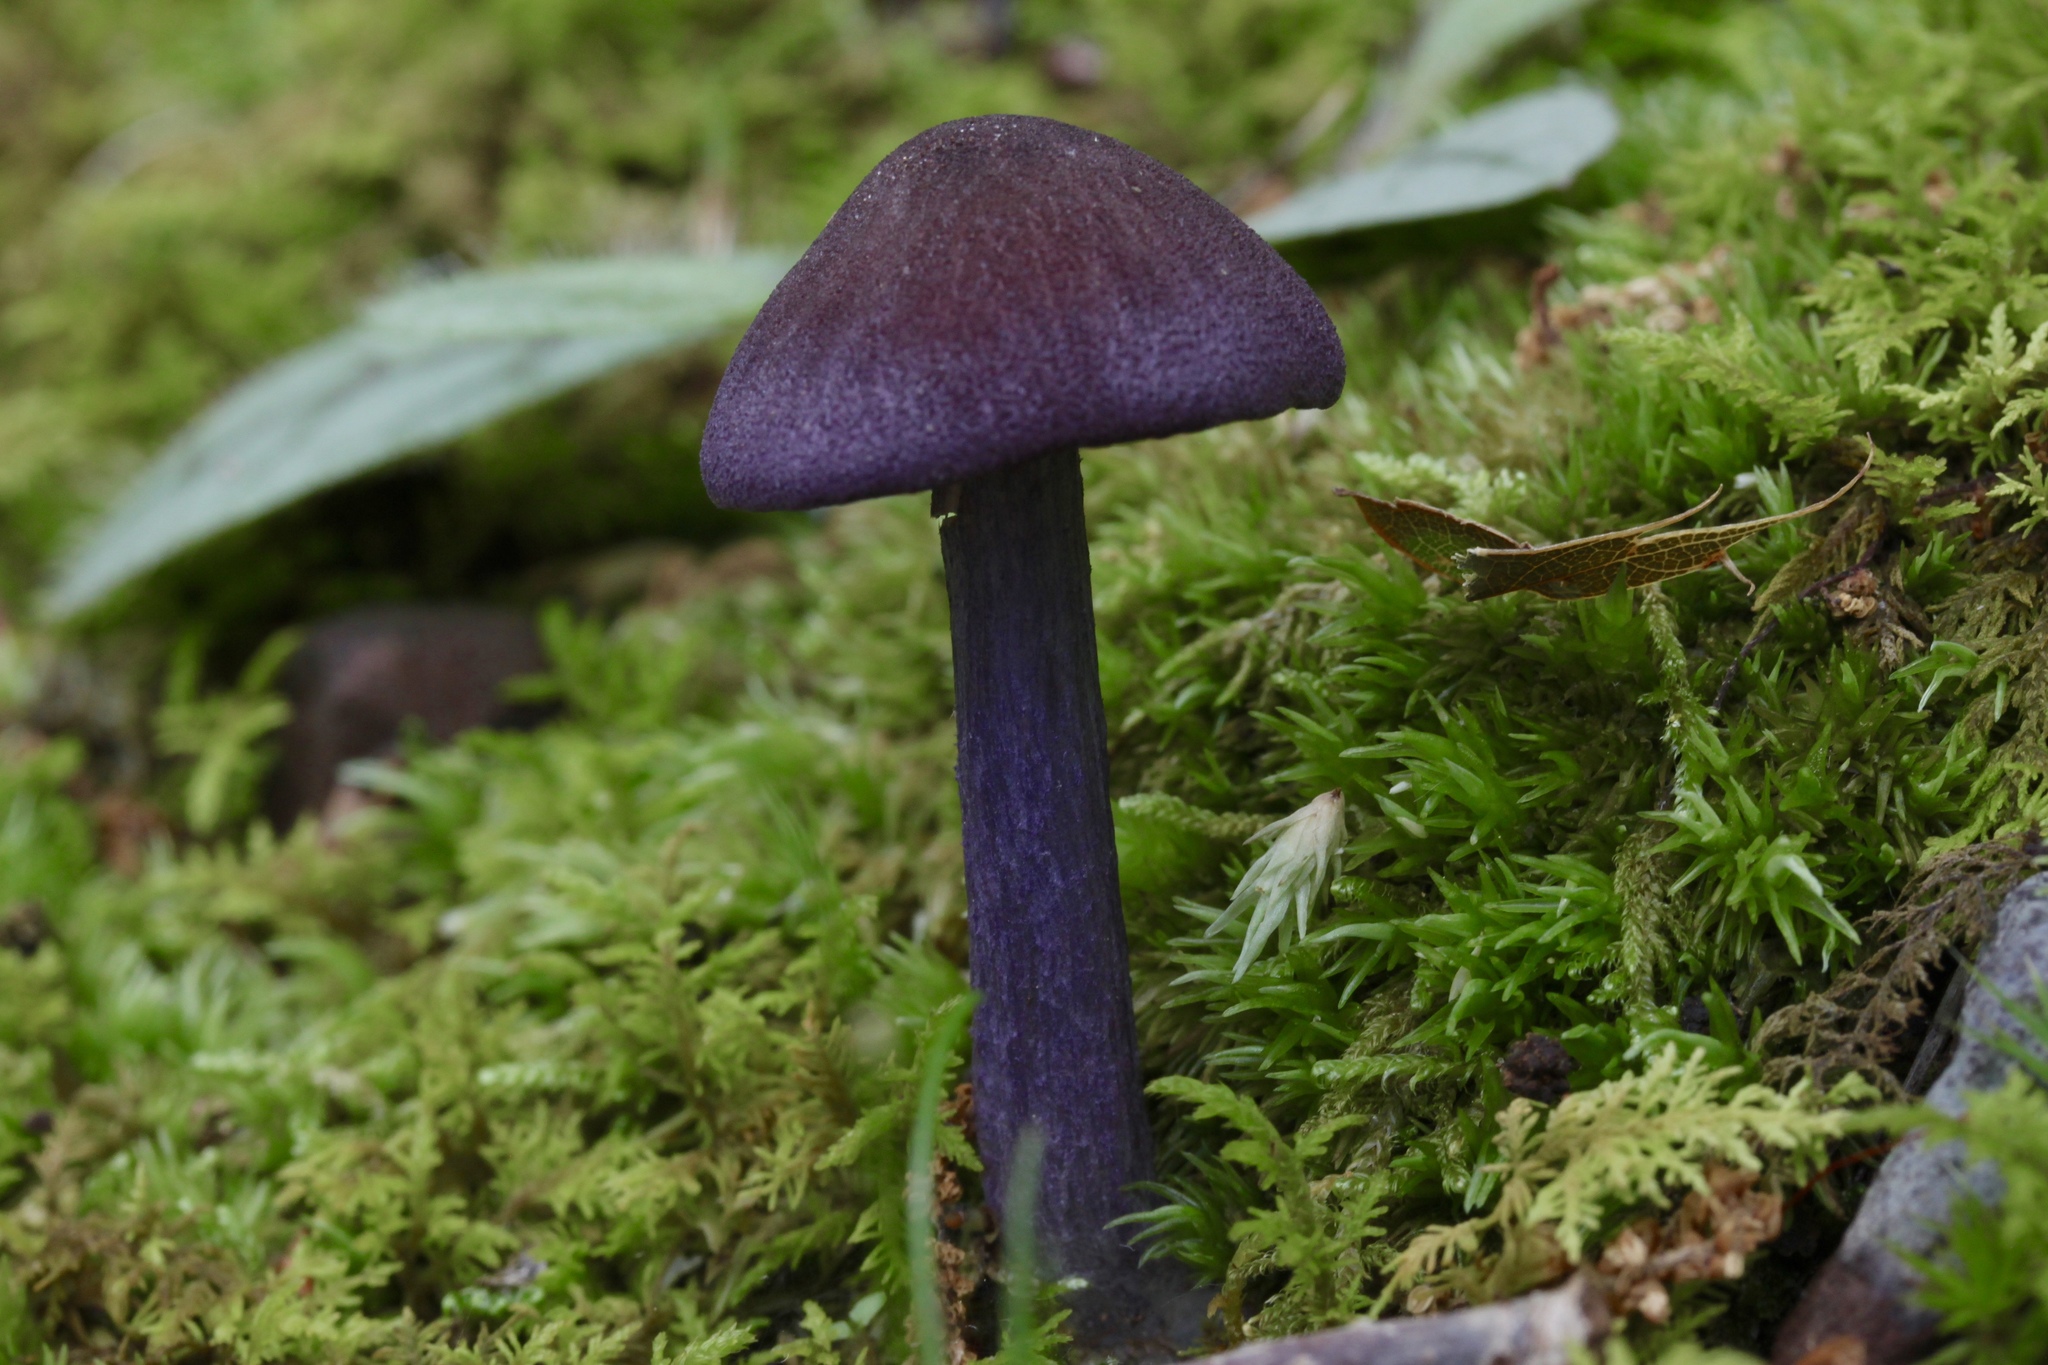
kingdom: Fungi
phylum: Basidiomycota
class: Agaricomycetes
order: Agaricales
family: Entolomataceae
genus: Entoloma
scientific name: Entoloma pigmentosipes
